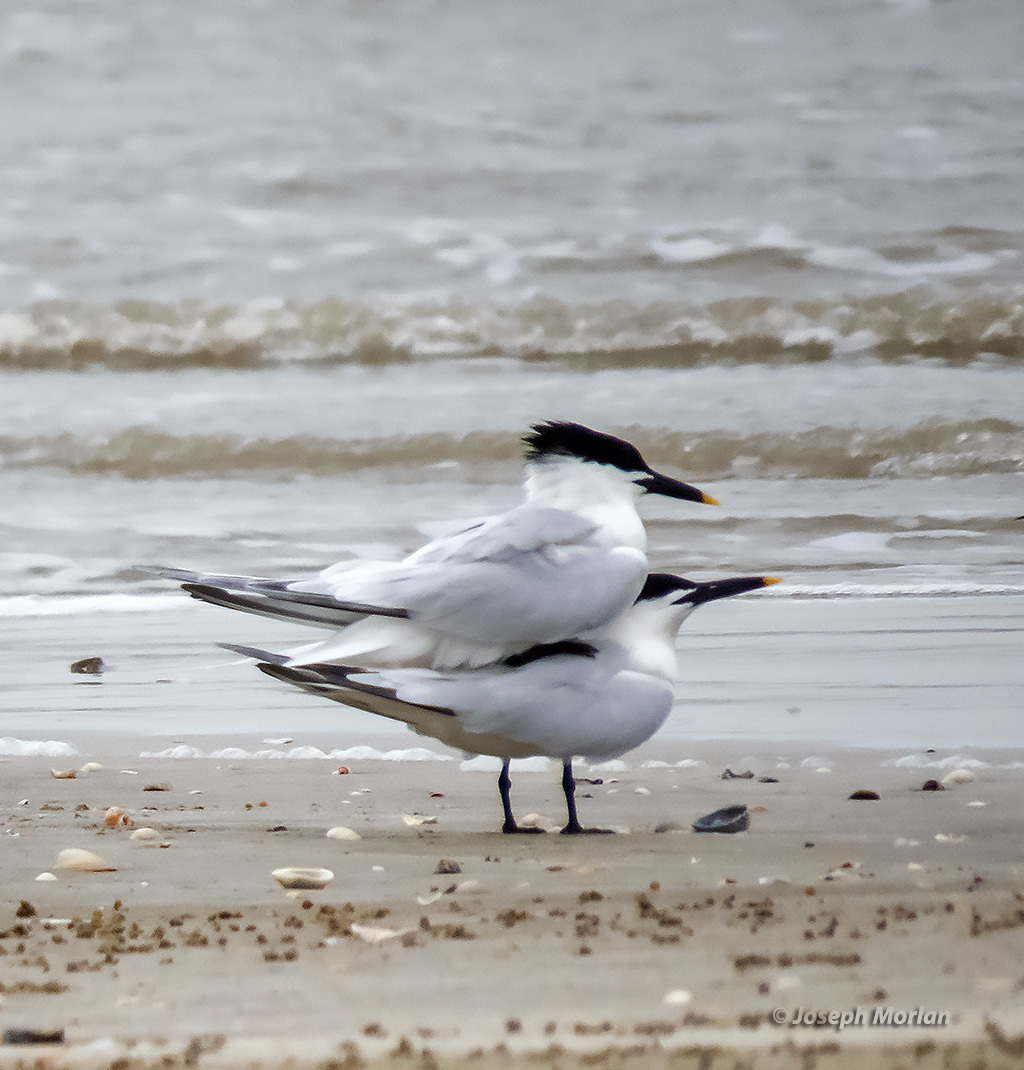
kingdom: Animalia
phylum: Chordata
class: Aves
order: Charadriiformes
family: Laridae
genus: Thalasseus
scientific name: Thalasseus sandvicensis
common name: Sandwich tern
